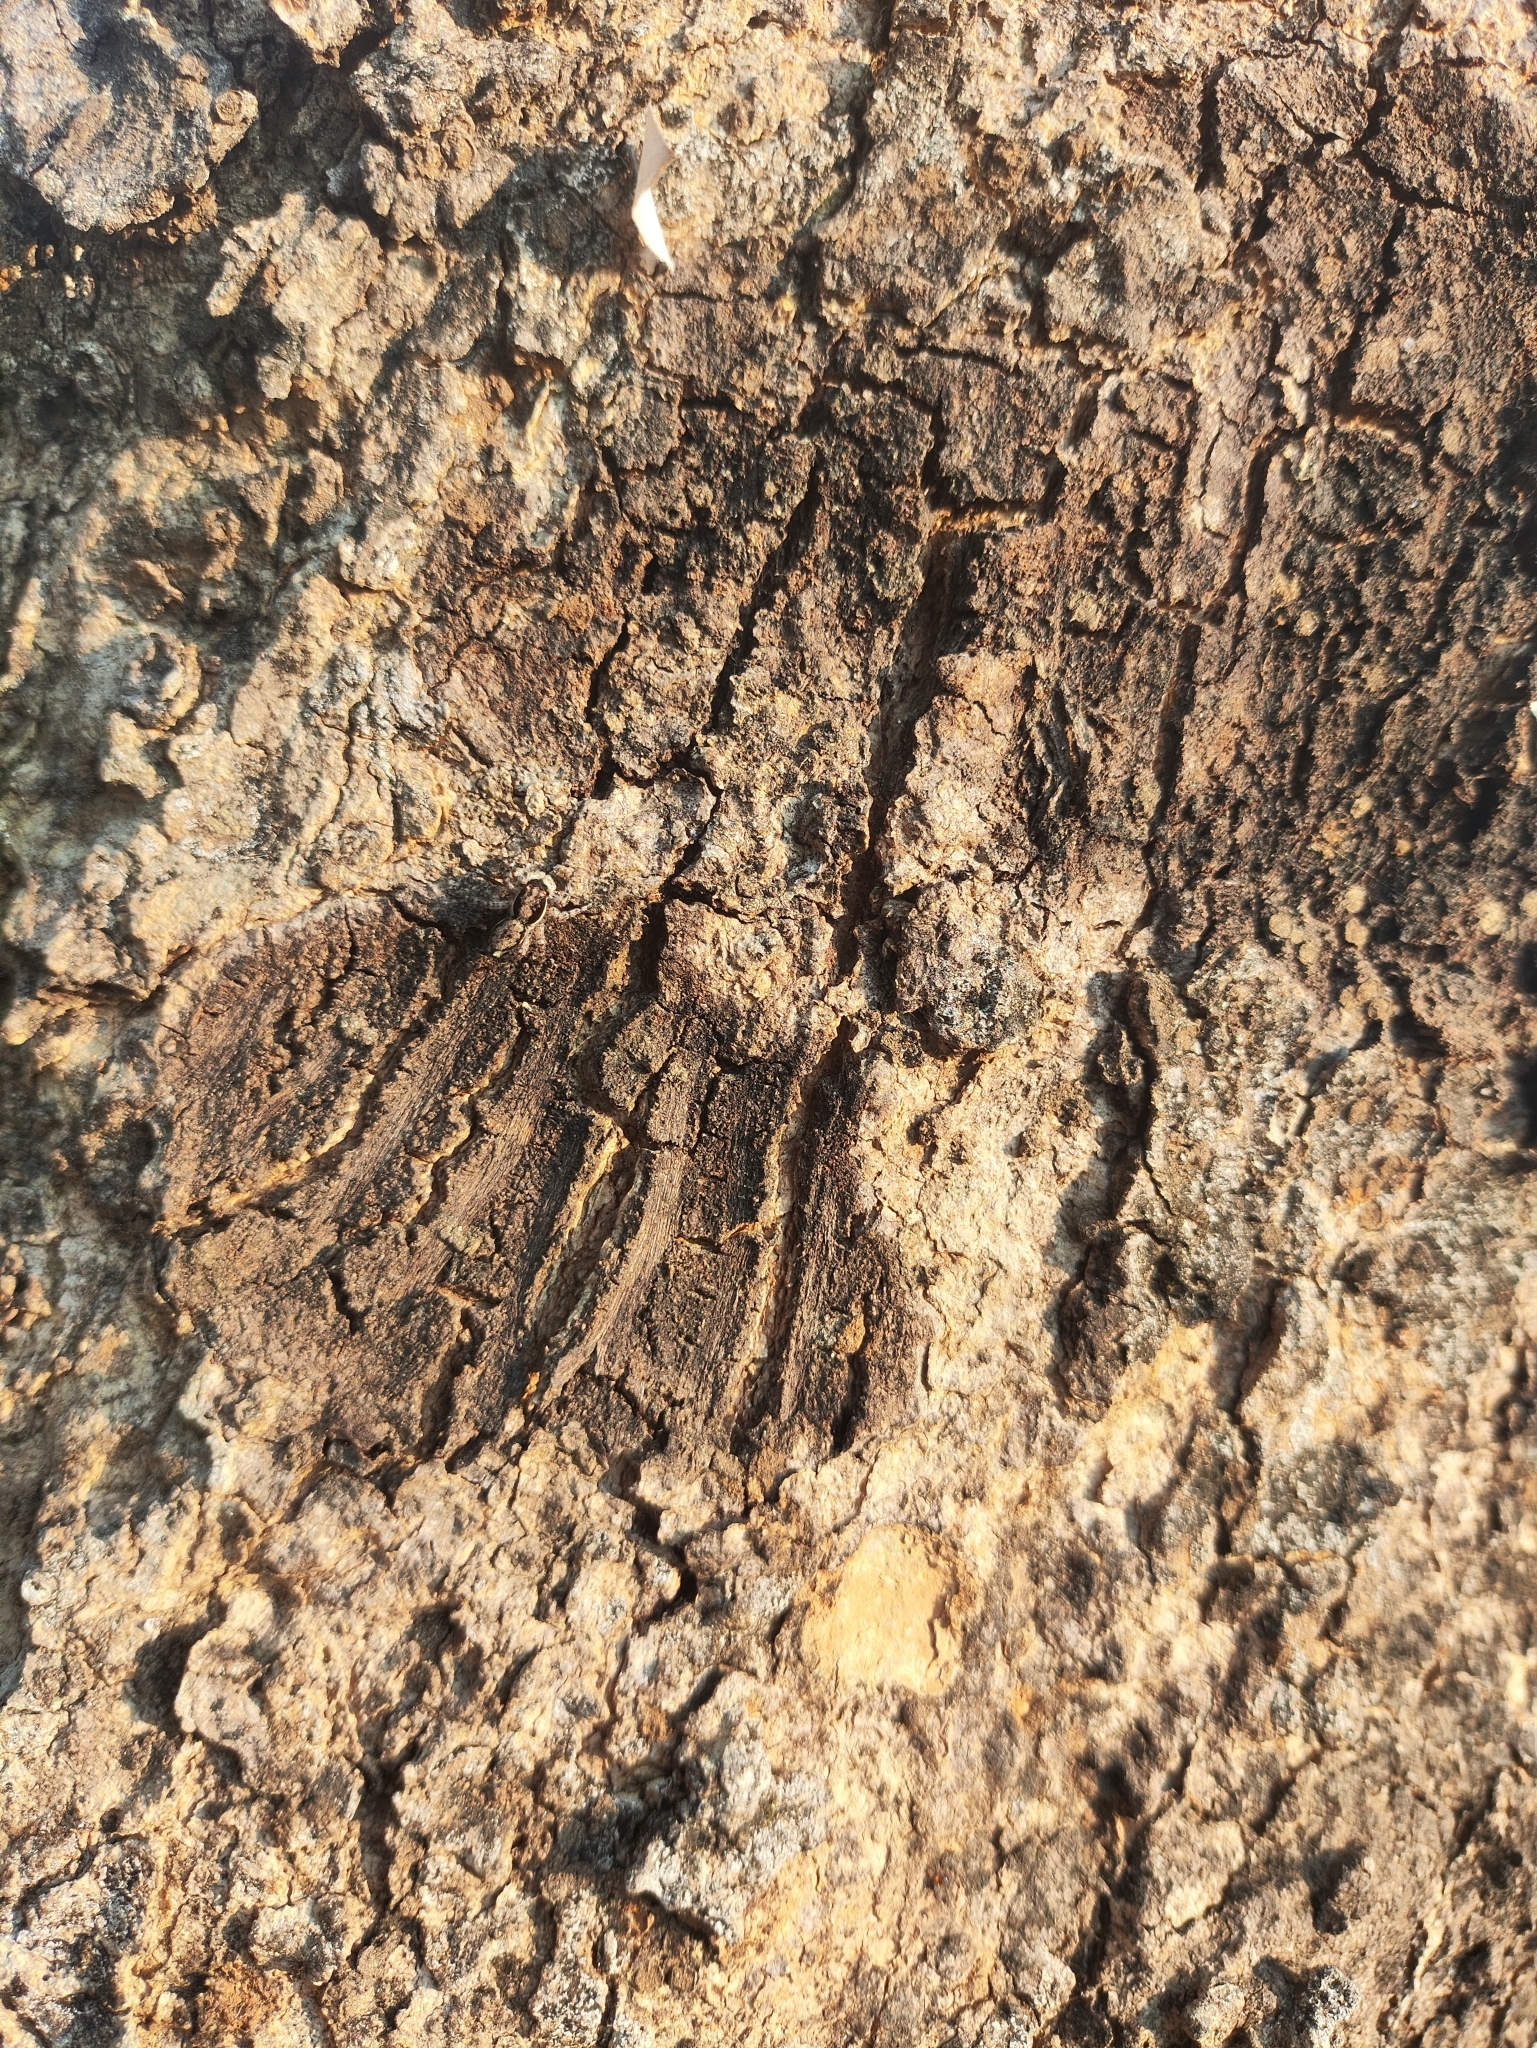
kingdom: Animalia
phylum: Arthropoda
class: Arachnida
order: Araneae
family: Salticidae
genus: Menemerus
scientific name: Menemerus bivittatus
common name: Gray wall jumper
